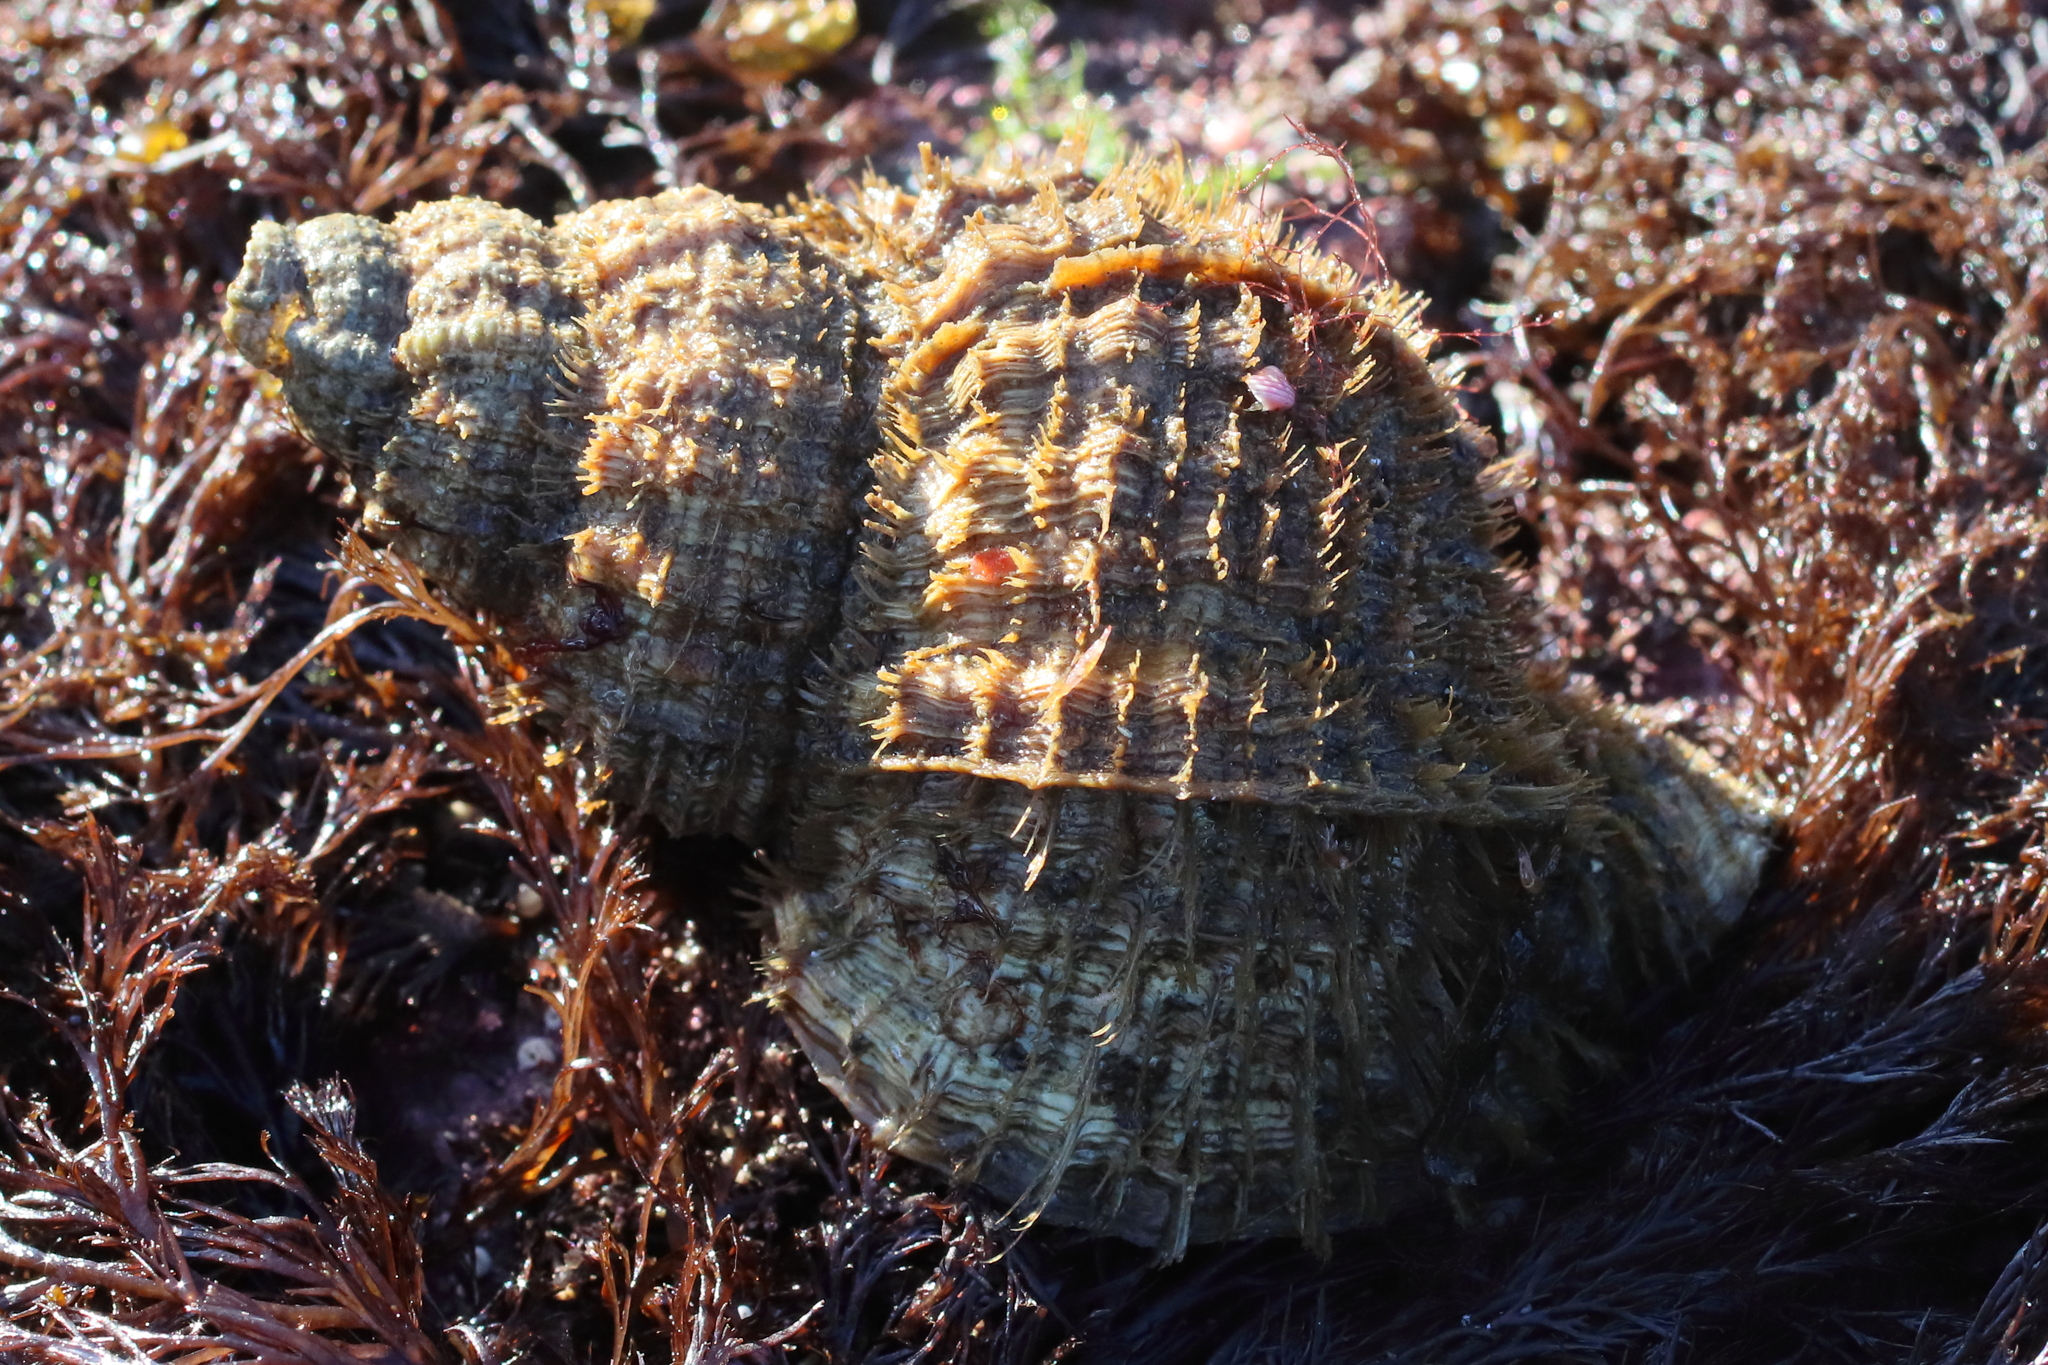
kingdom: Animalia
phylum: Mollusca
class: Gastropoda
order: Littorinimorpha
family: Cymatiidae
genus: Fusitriton
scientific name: Fusitriton oregonensis
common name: Oregon hairy triton
